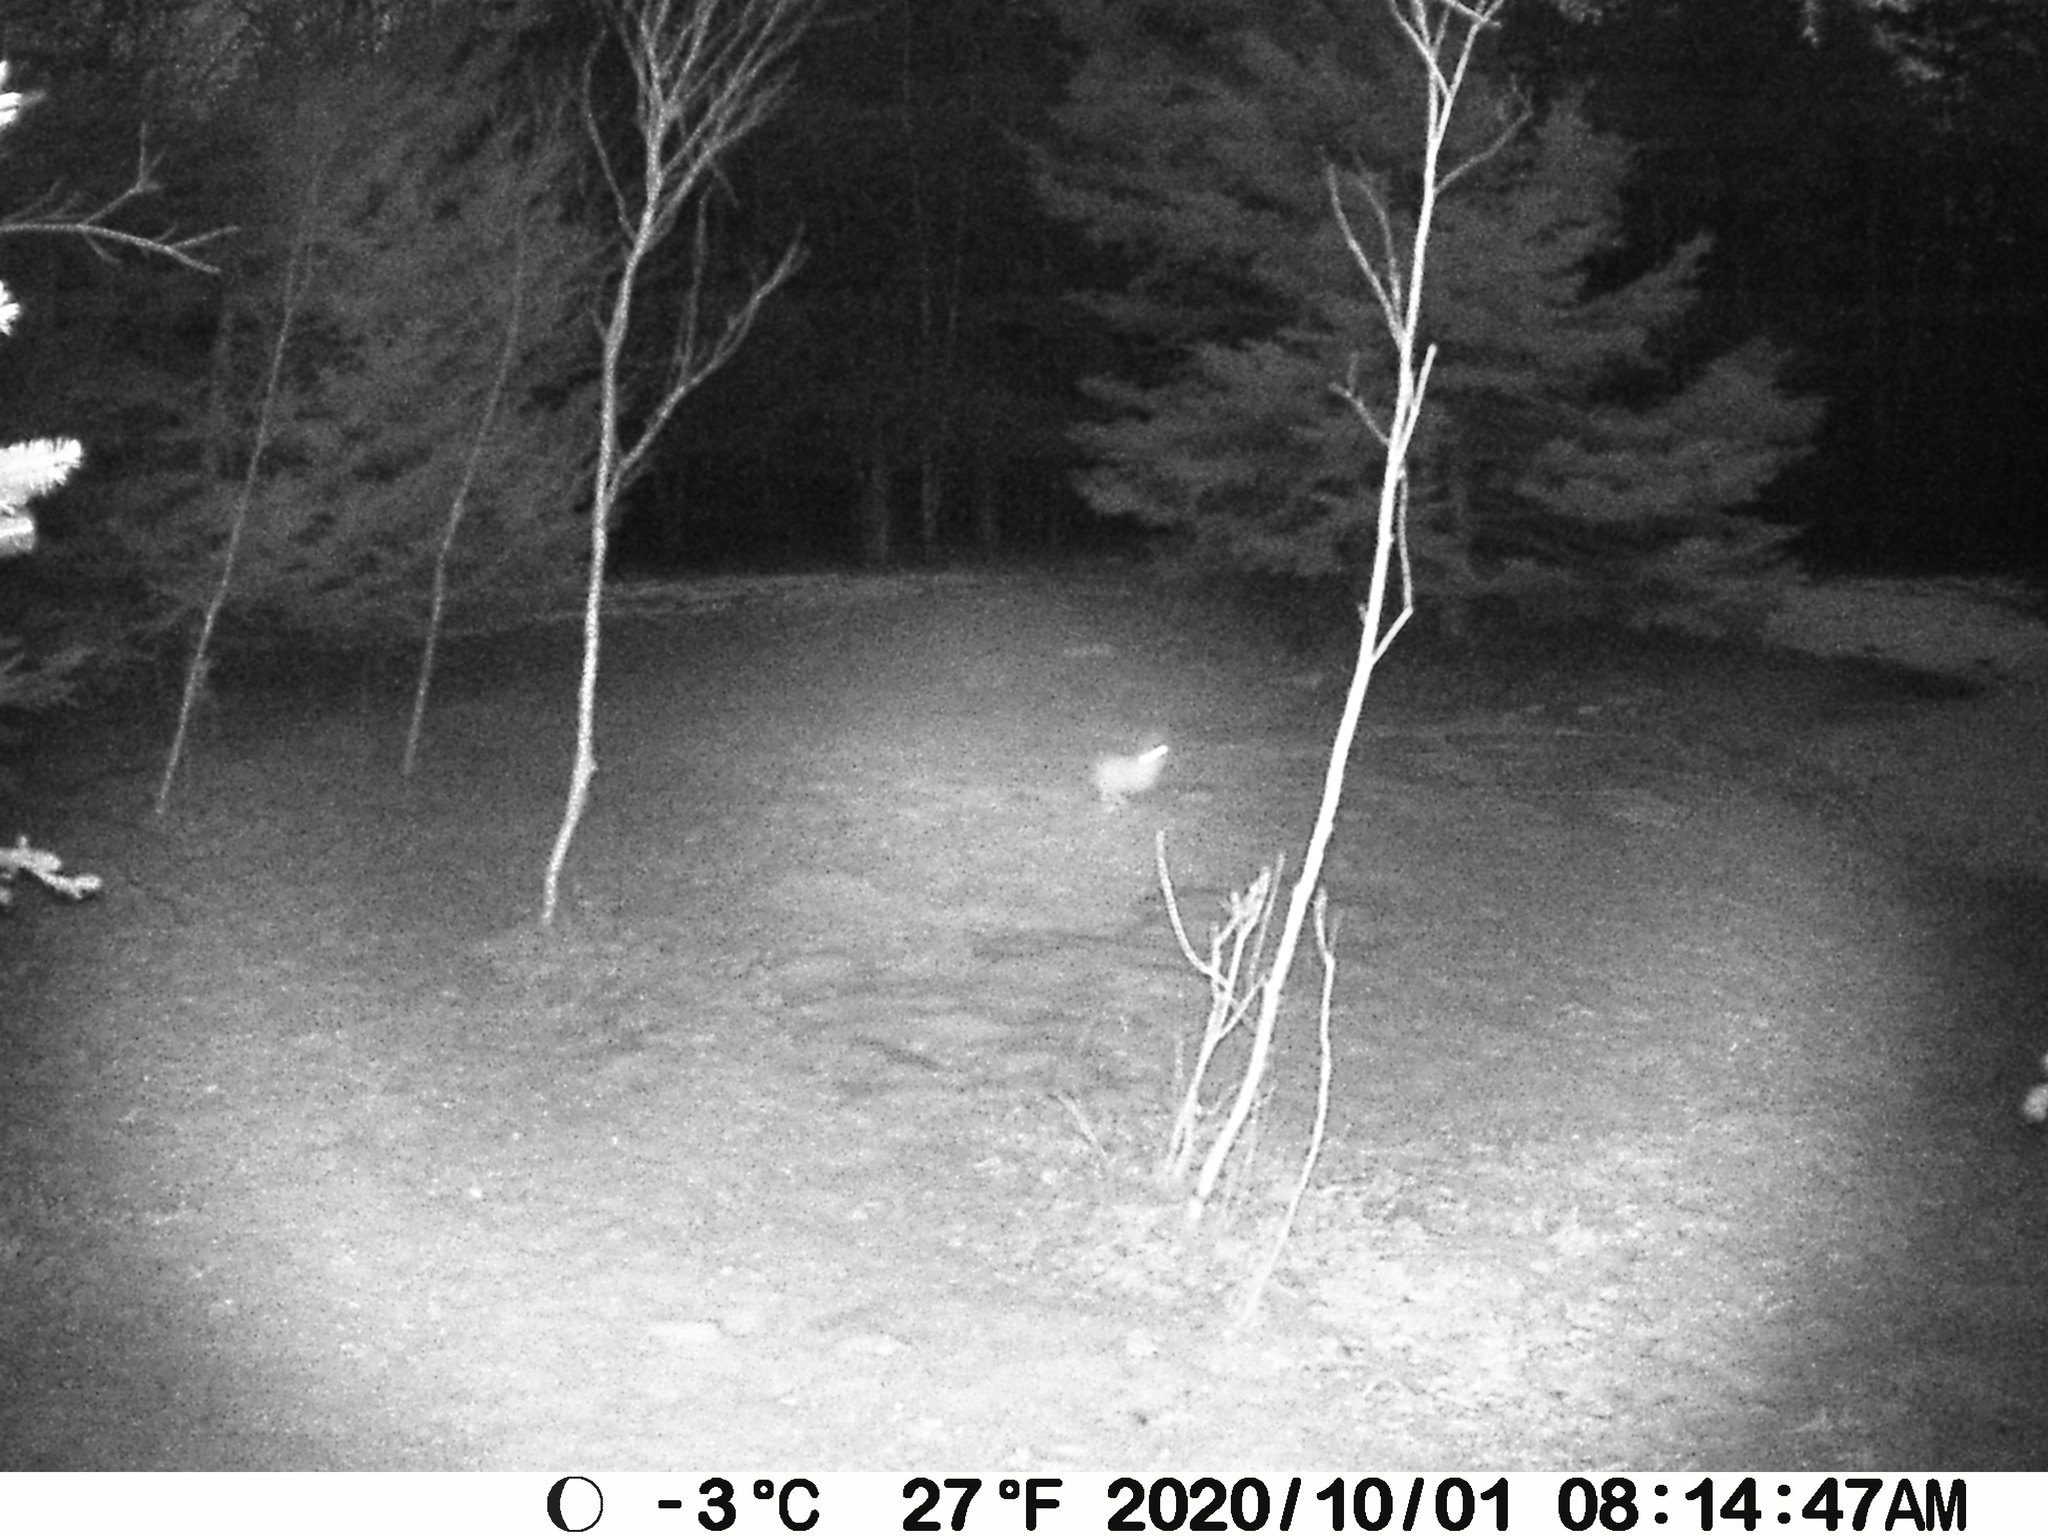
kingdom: Animalia
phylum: Chordata
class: Mammalia
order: Lagomorpha
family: Leporidae
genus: Lepus
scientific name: Lepus americanus
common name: Snowshoe hare
